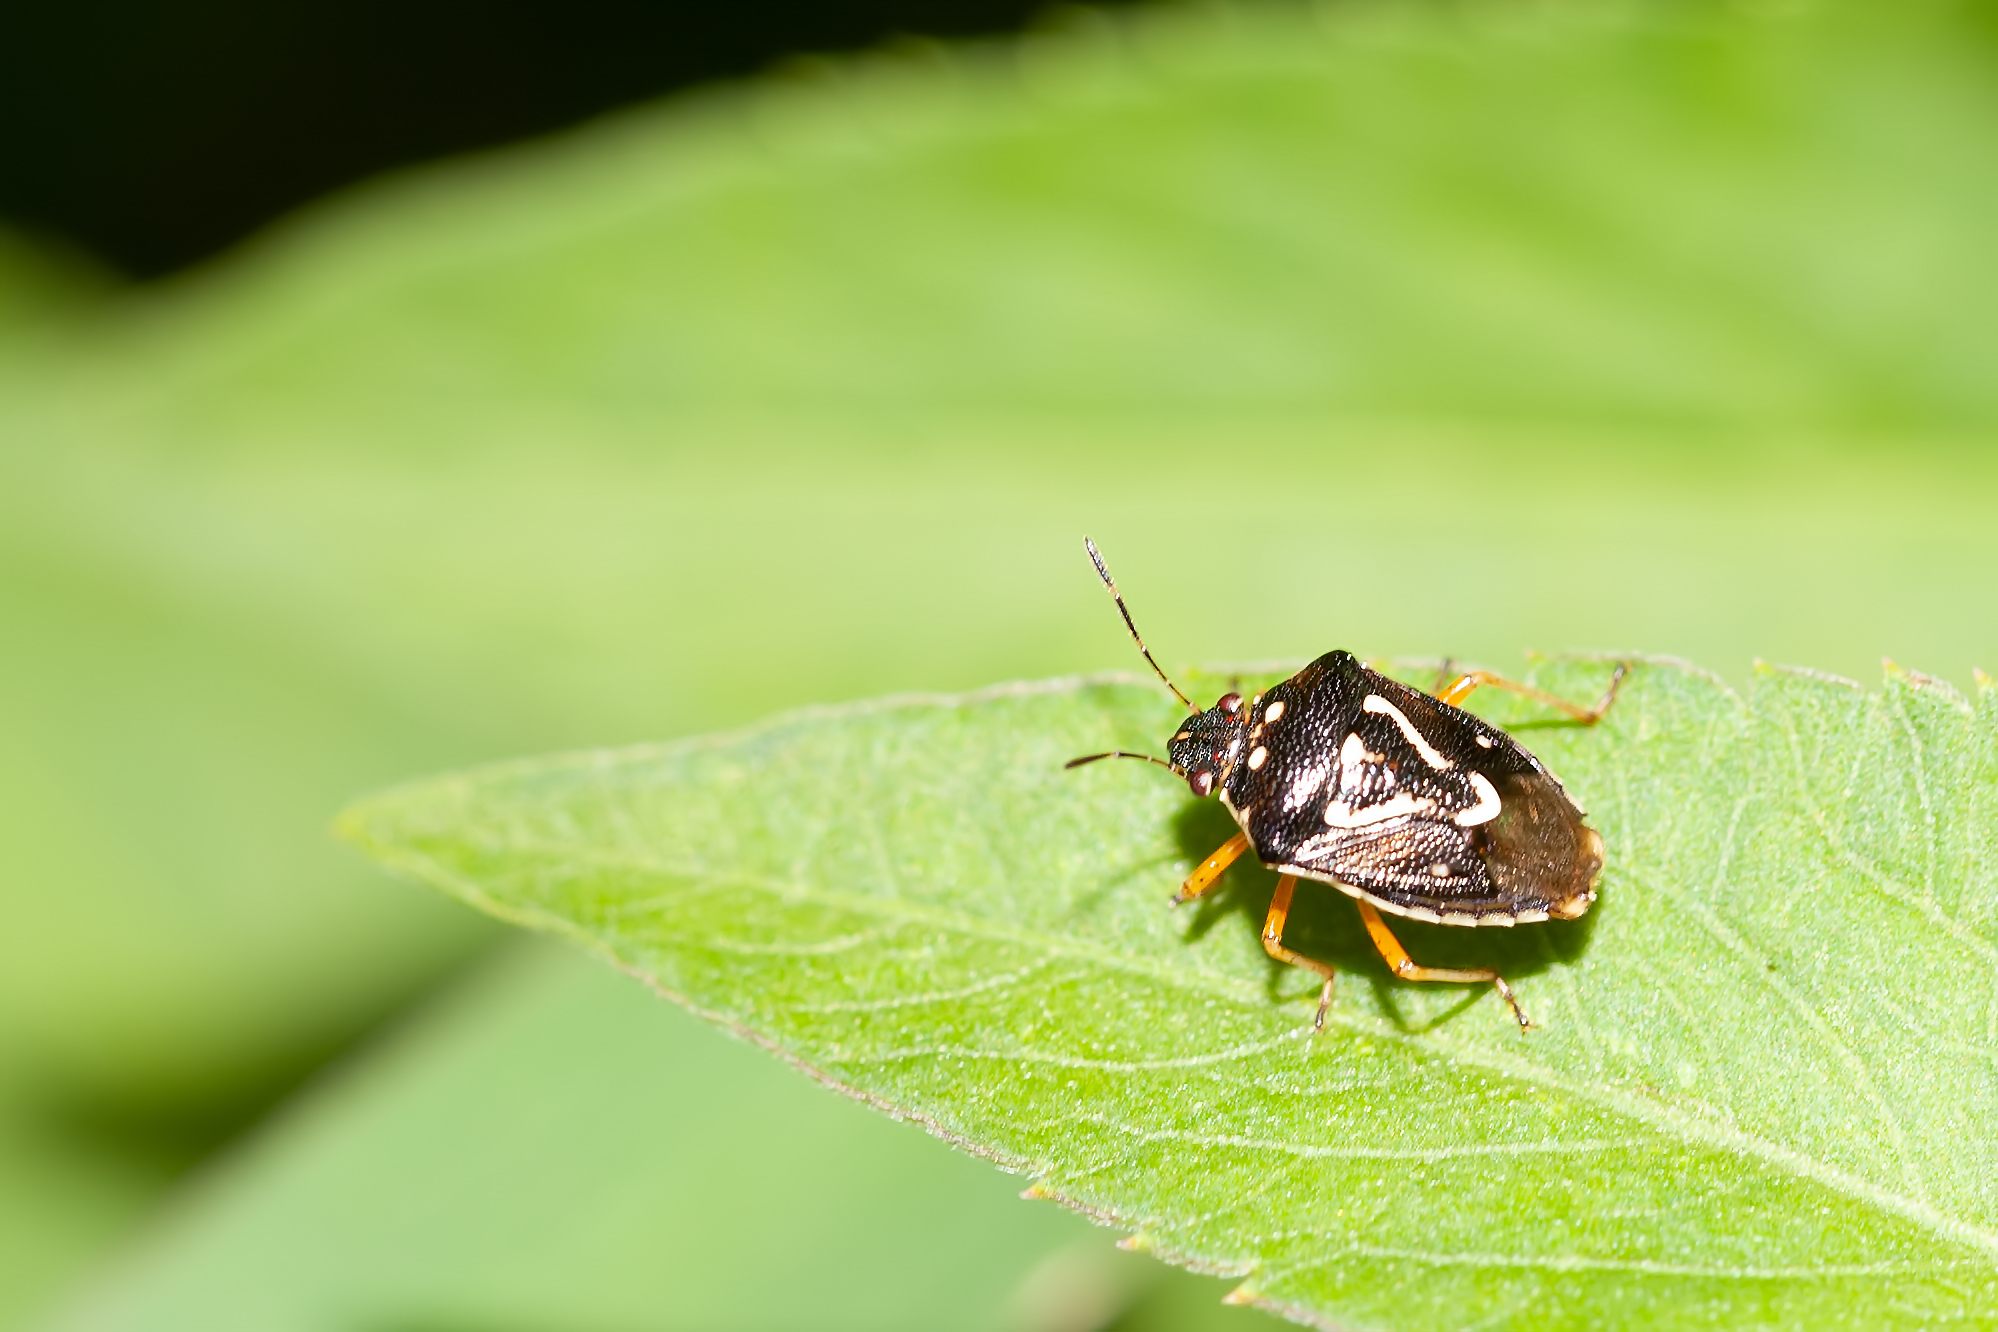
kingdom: Animalia
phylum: Arthropoda
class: Insecta
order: Hemiptera
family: Pentatomidae
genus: Mormidea
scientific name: Mormidea pama
